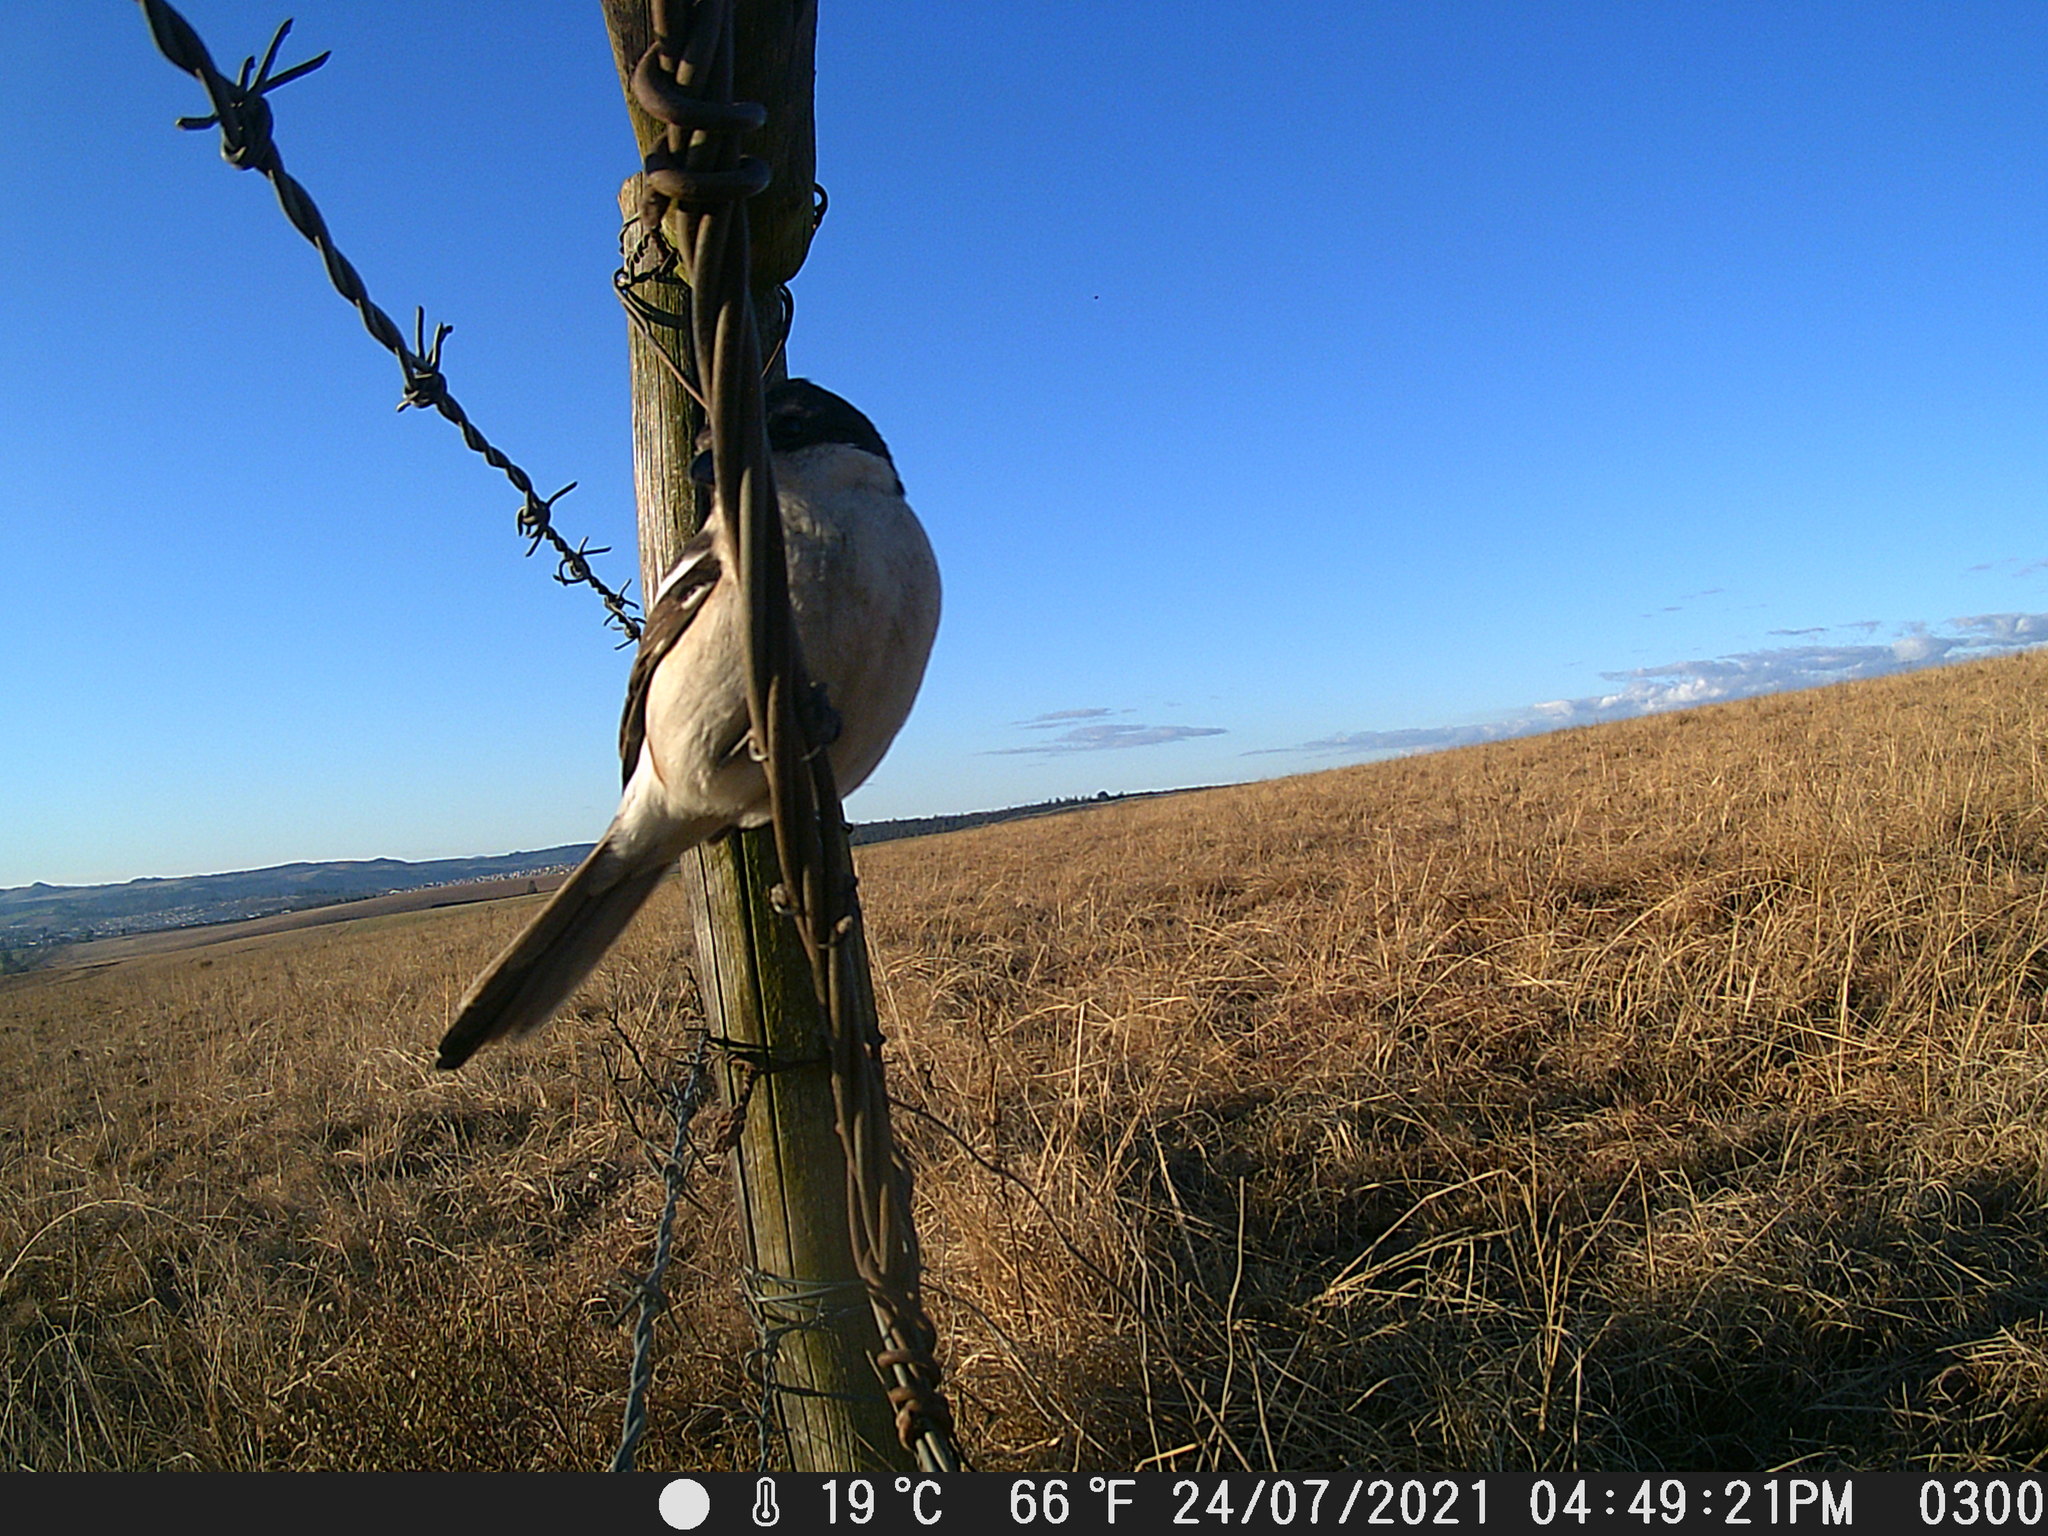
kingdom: Animalia
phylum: Chordata
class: Aves
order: Passeriformes
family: Laniidae
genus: Lanius
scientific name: Lanius collaris
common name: Southern fiscal
